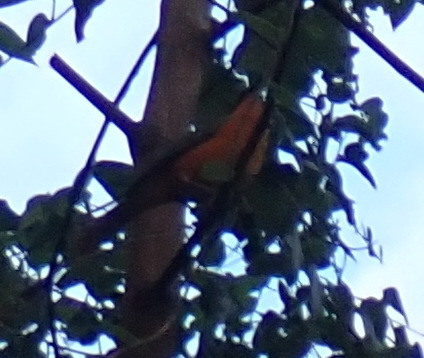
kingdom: Animalia
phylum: Chordata
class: Aves
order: Passeriformes
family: Malaconotidae
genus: Chlorophoneus
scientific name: Chlorophoneus sulfureopectus
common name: Orange-breasted bushshrike
